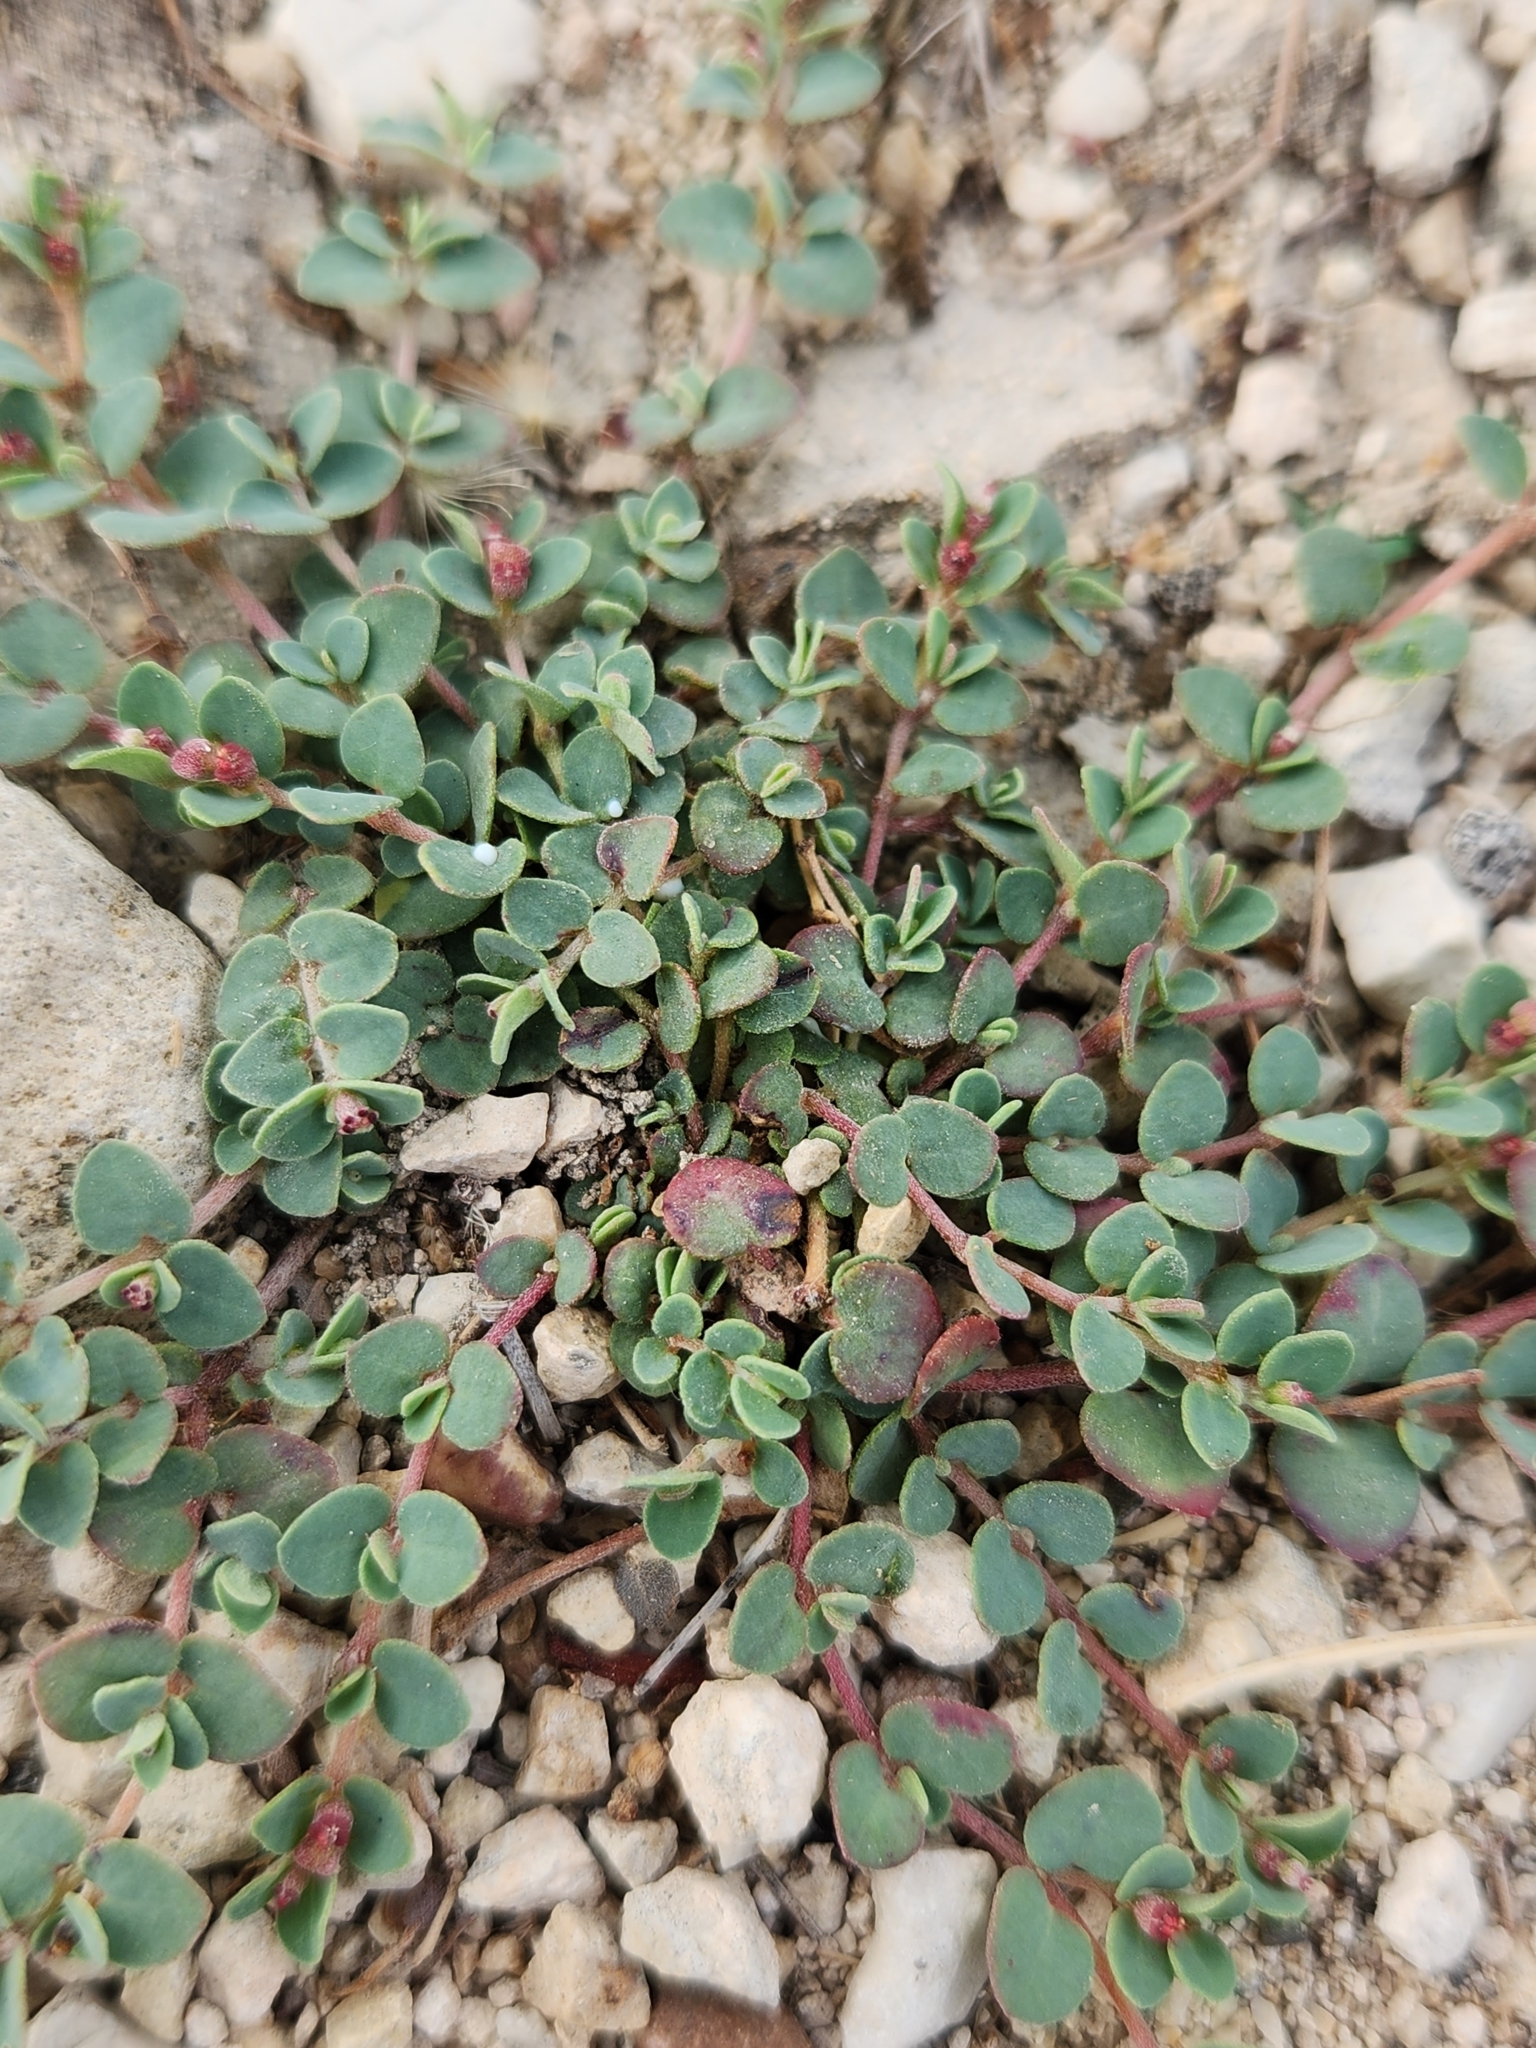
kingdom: Plantae
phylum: Tracheophyta
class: Magnoliopsida
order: Malpighiales
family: Euphorbiaceae
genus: Euphorbia
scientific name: Euphorbia cinerascens
